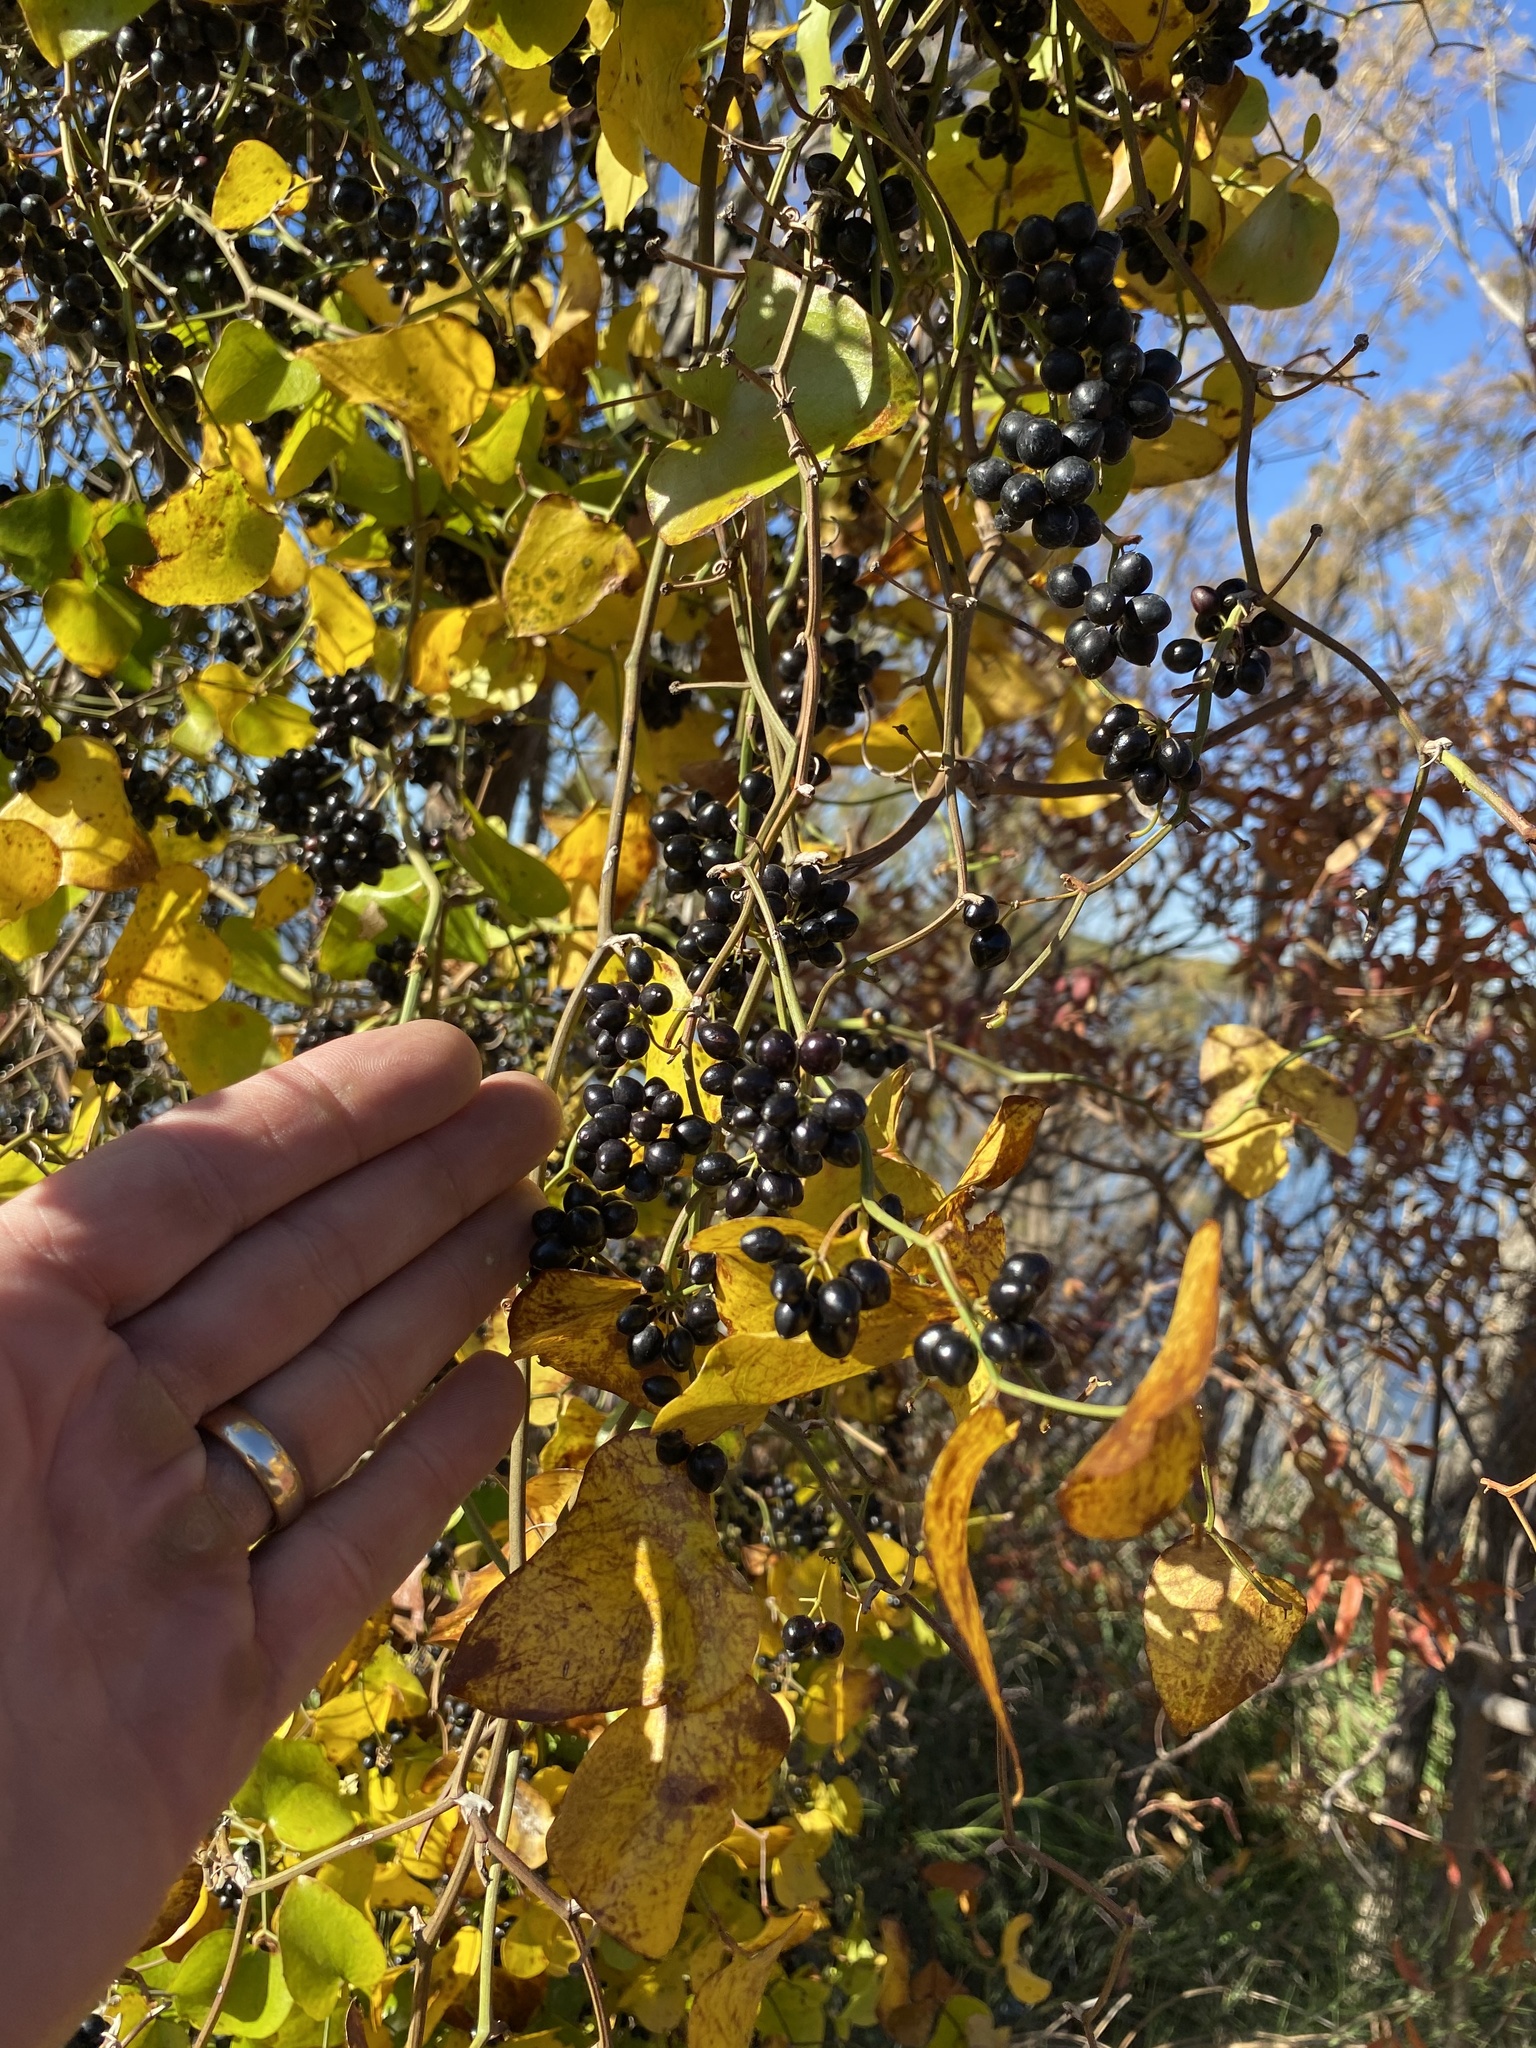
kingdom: Plantae
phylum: Tracheophyta
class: Liliopsida
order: Liliales
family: Smilacaceae
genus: Smilax
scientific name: Smilax bona-nox
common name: Catbrier
